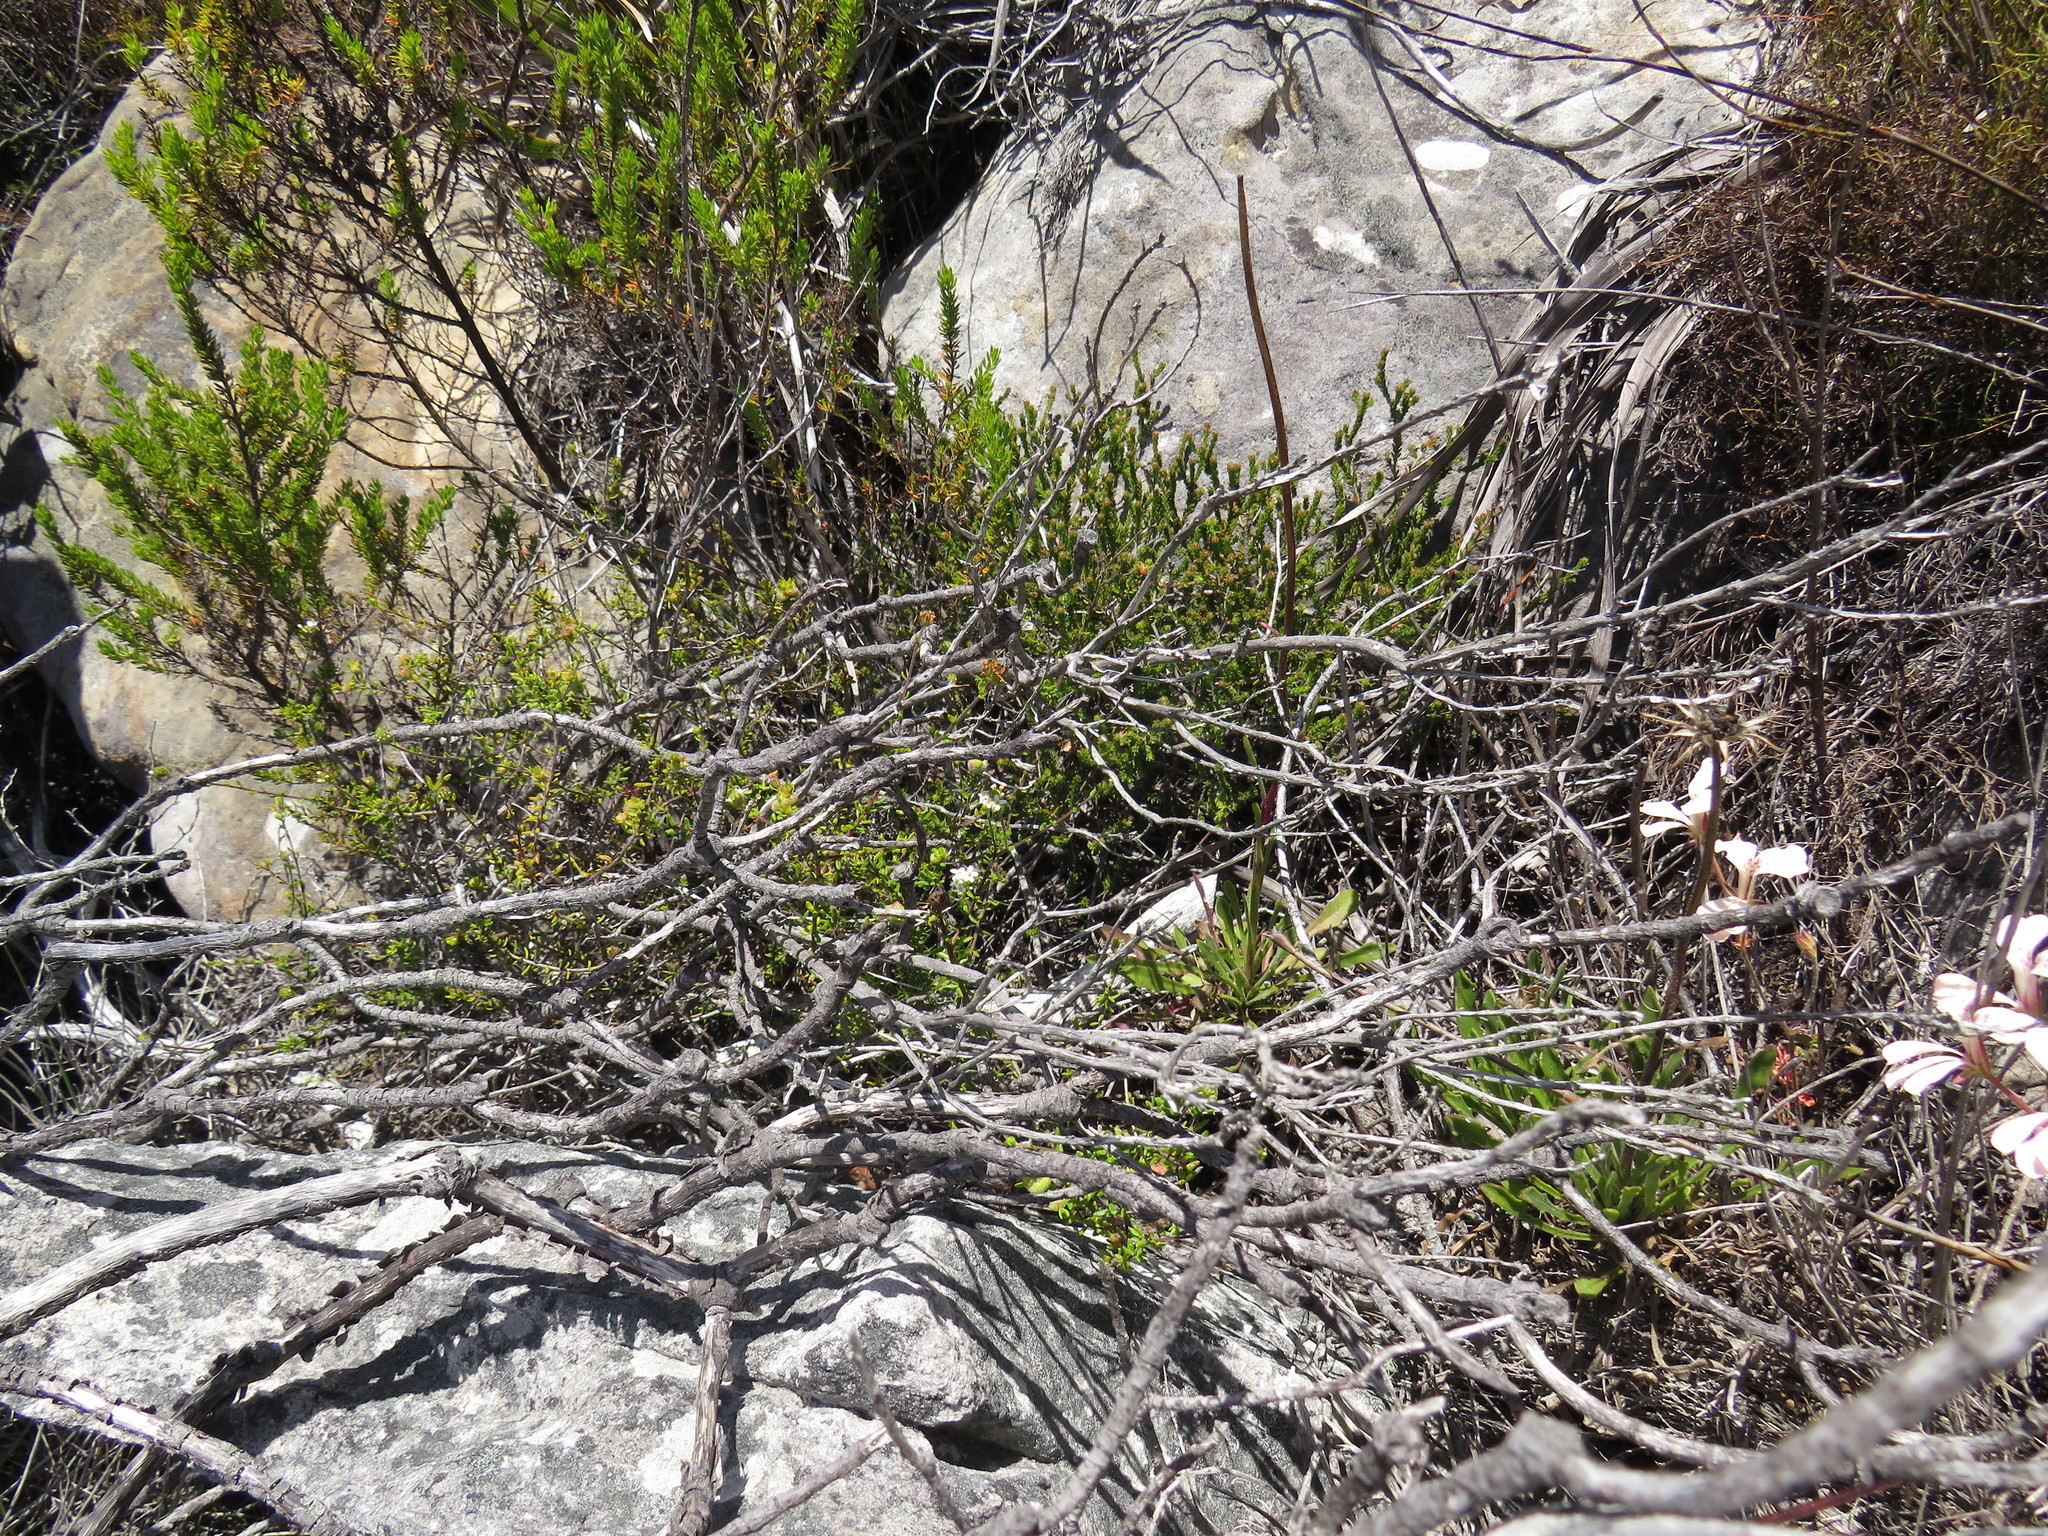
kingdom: Plantae
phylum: Tracheophyta
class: Magnoliopsida
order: Lamiales
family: Scrophulariaceae
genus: Selago
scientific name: Selago levynsiae
